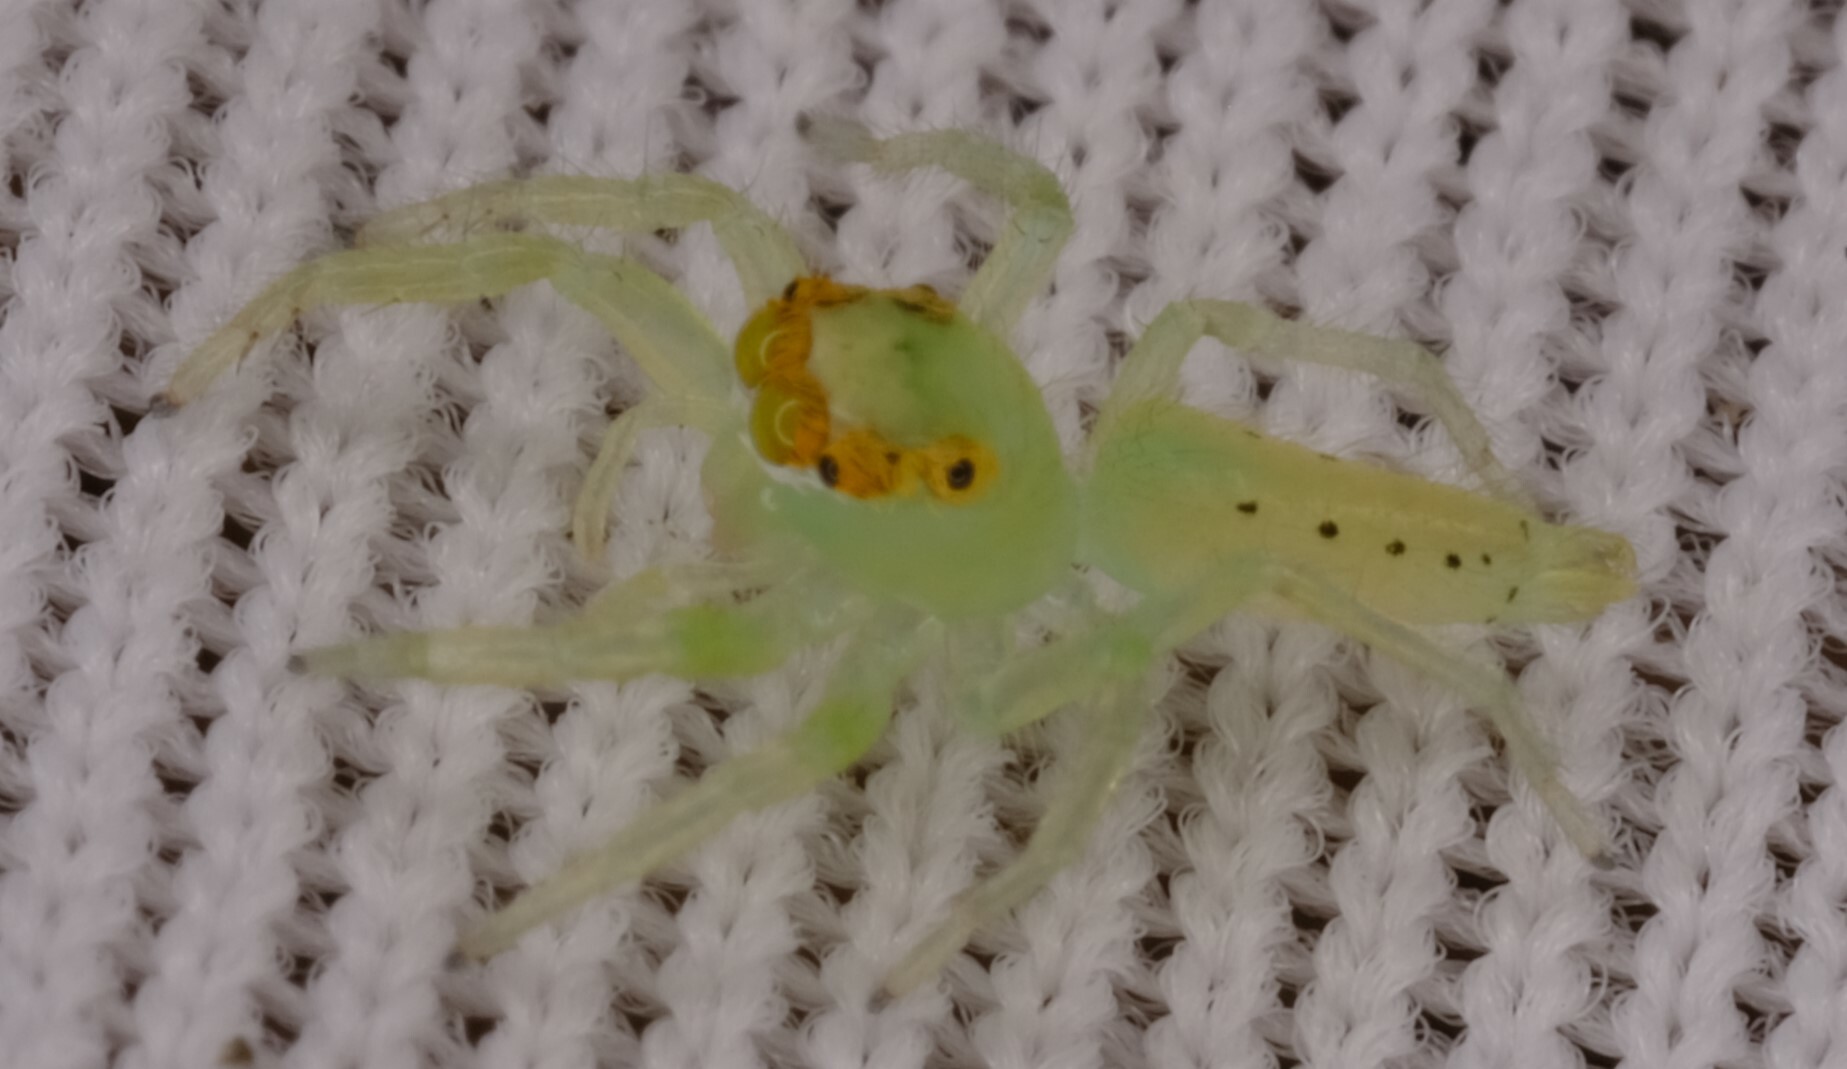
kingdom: Animalia
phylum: Arthropoda
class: Arachnida
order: Araneae
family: Salticidae
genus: Mopsus
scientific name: Mopsus mormon
